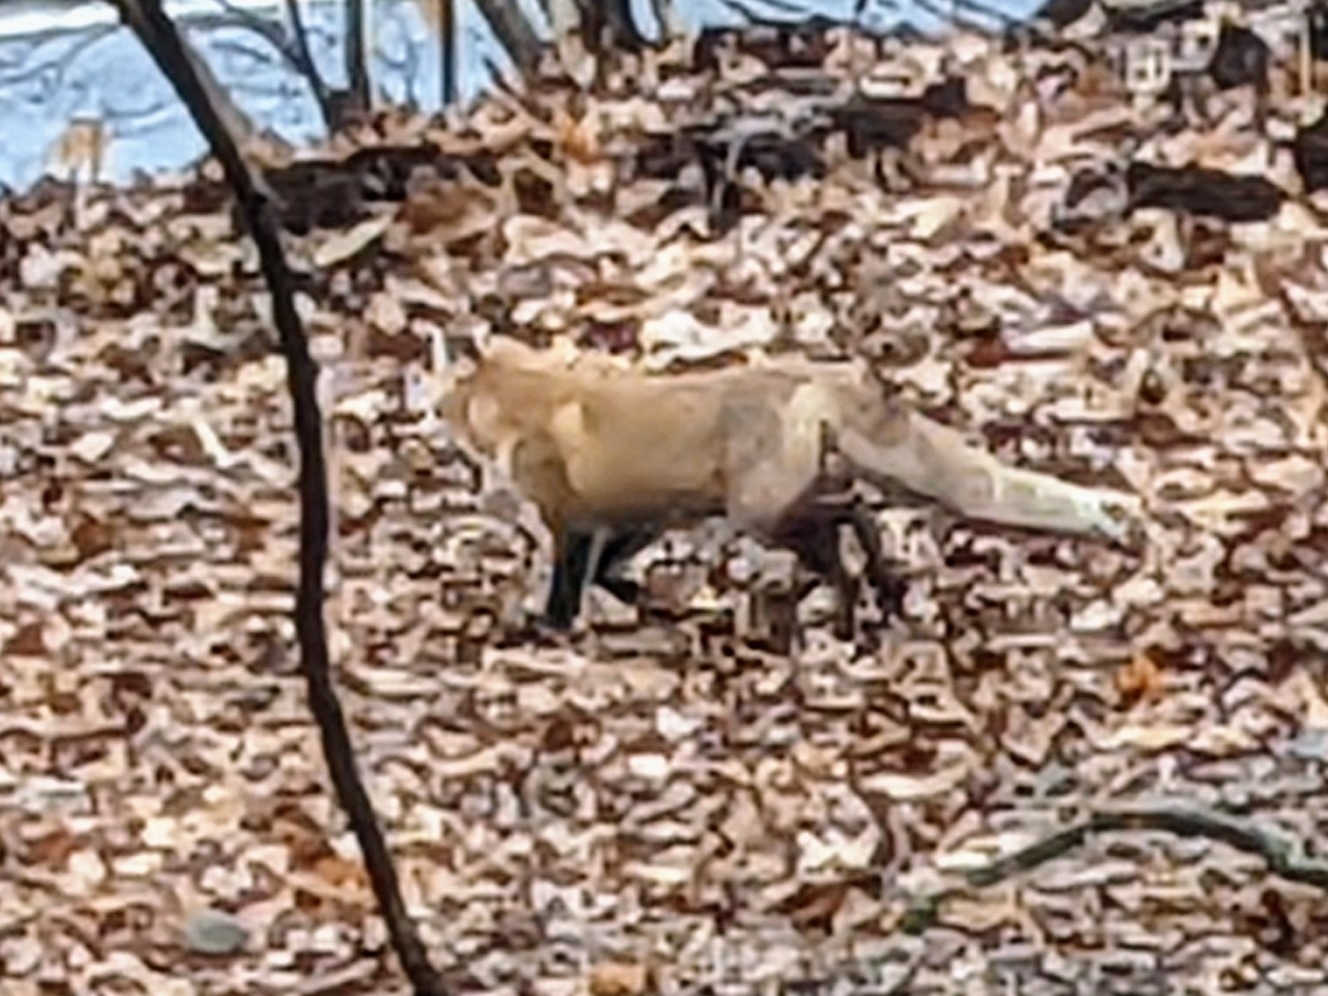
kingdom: Animalia
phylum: Chordata
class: Mammalia
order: Carnivora
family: Canidae
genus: Vulpes
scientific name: Vulpes vulpes
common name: Red fox
